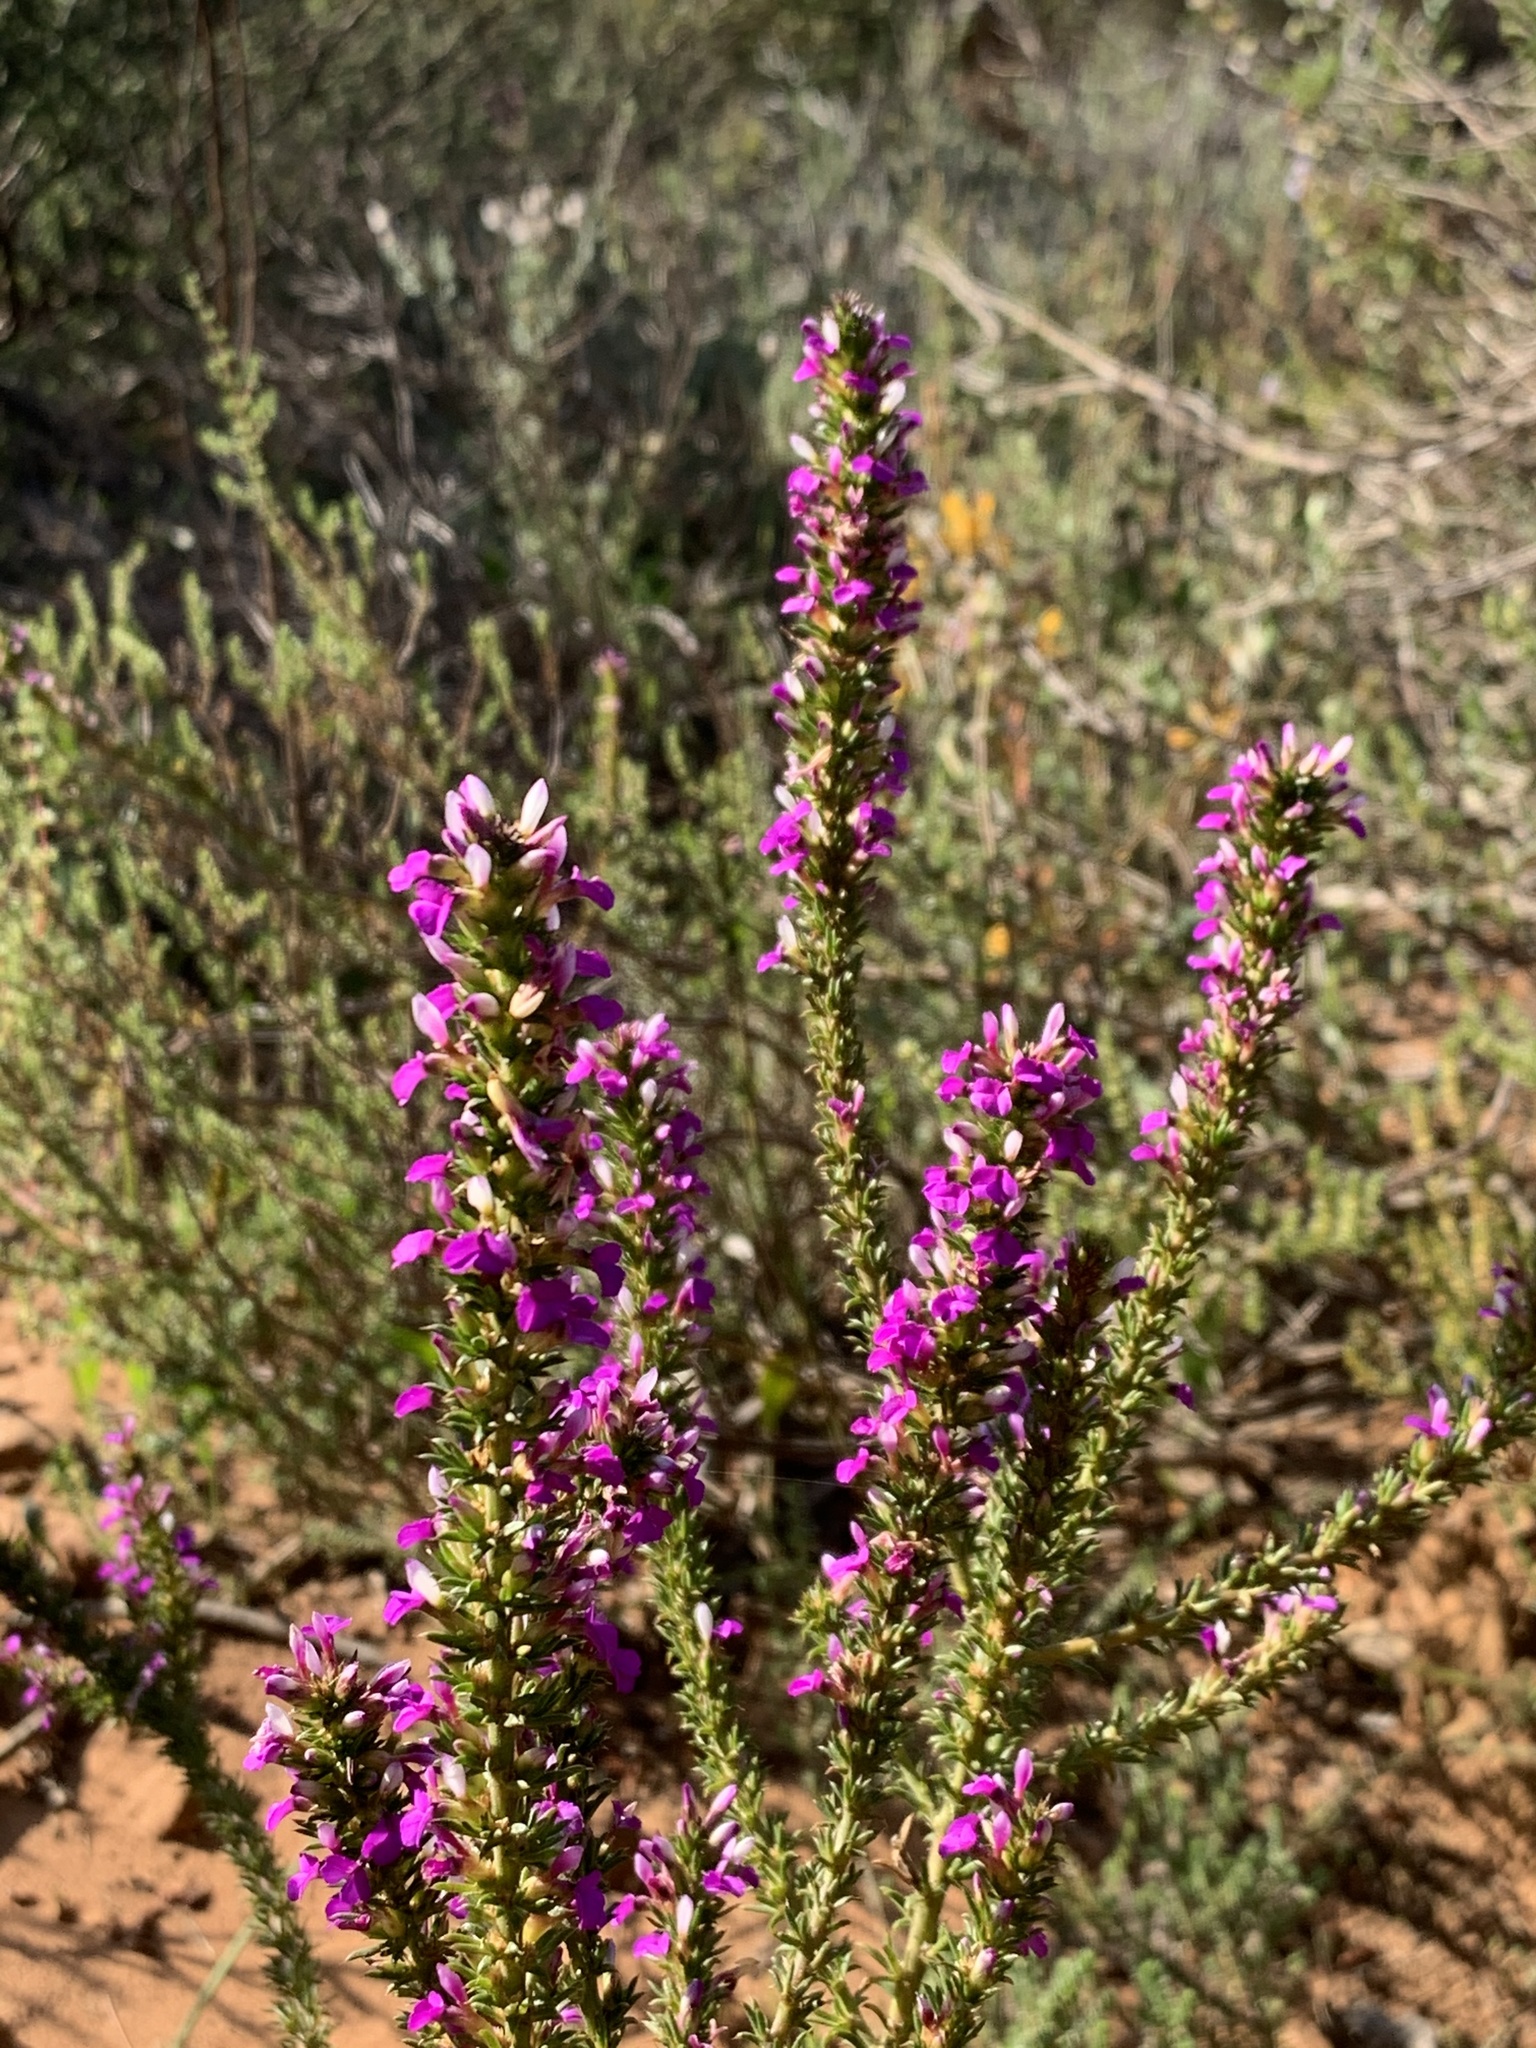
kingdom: Plantae
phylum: Tracheophyta
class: Magnoliopsida
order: Fabales
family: Polygalaceae
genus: Muraltia
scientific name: Muraltia heisteria
